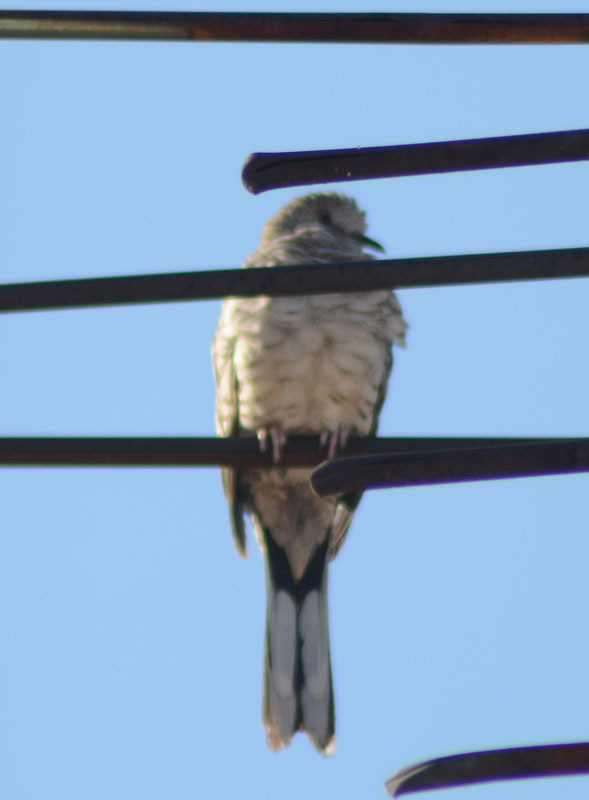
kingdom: Animalia
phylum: Chordata
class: Aves
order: Columbiformes
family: Columbidae
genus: Columbina
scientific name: Columbina inca
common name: Inca dove
